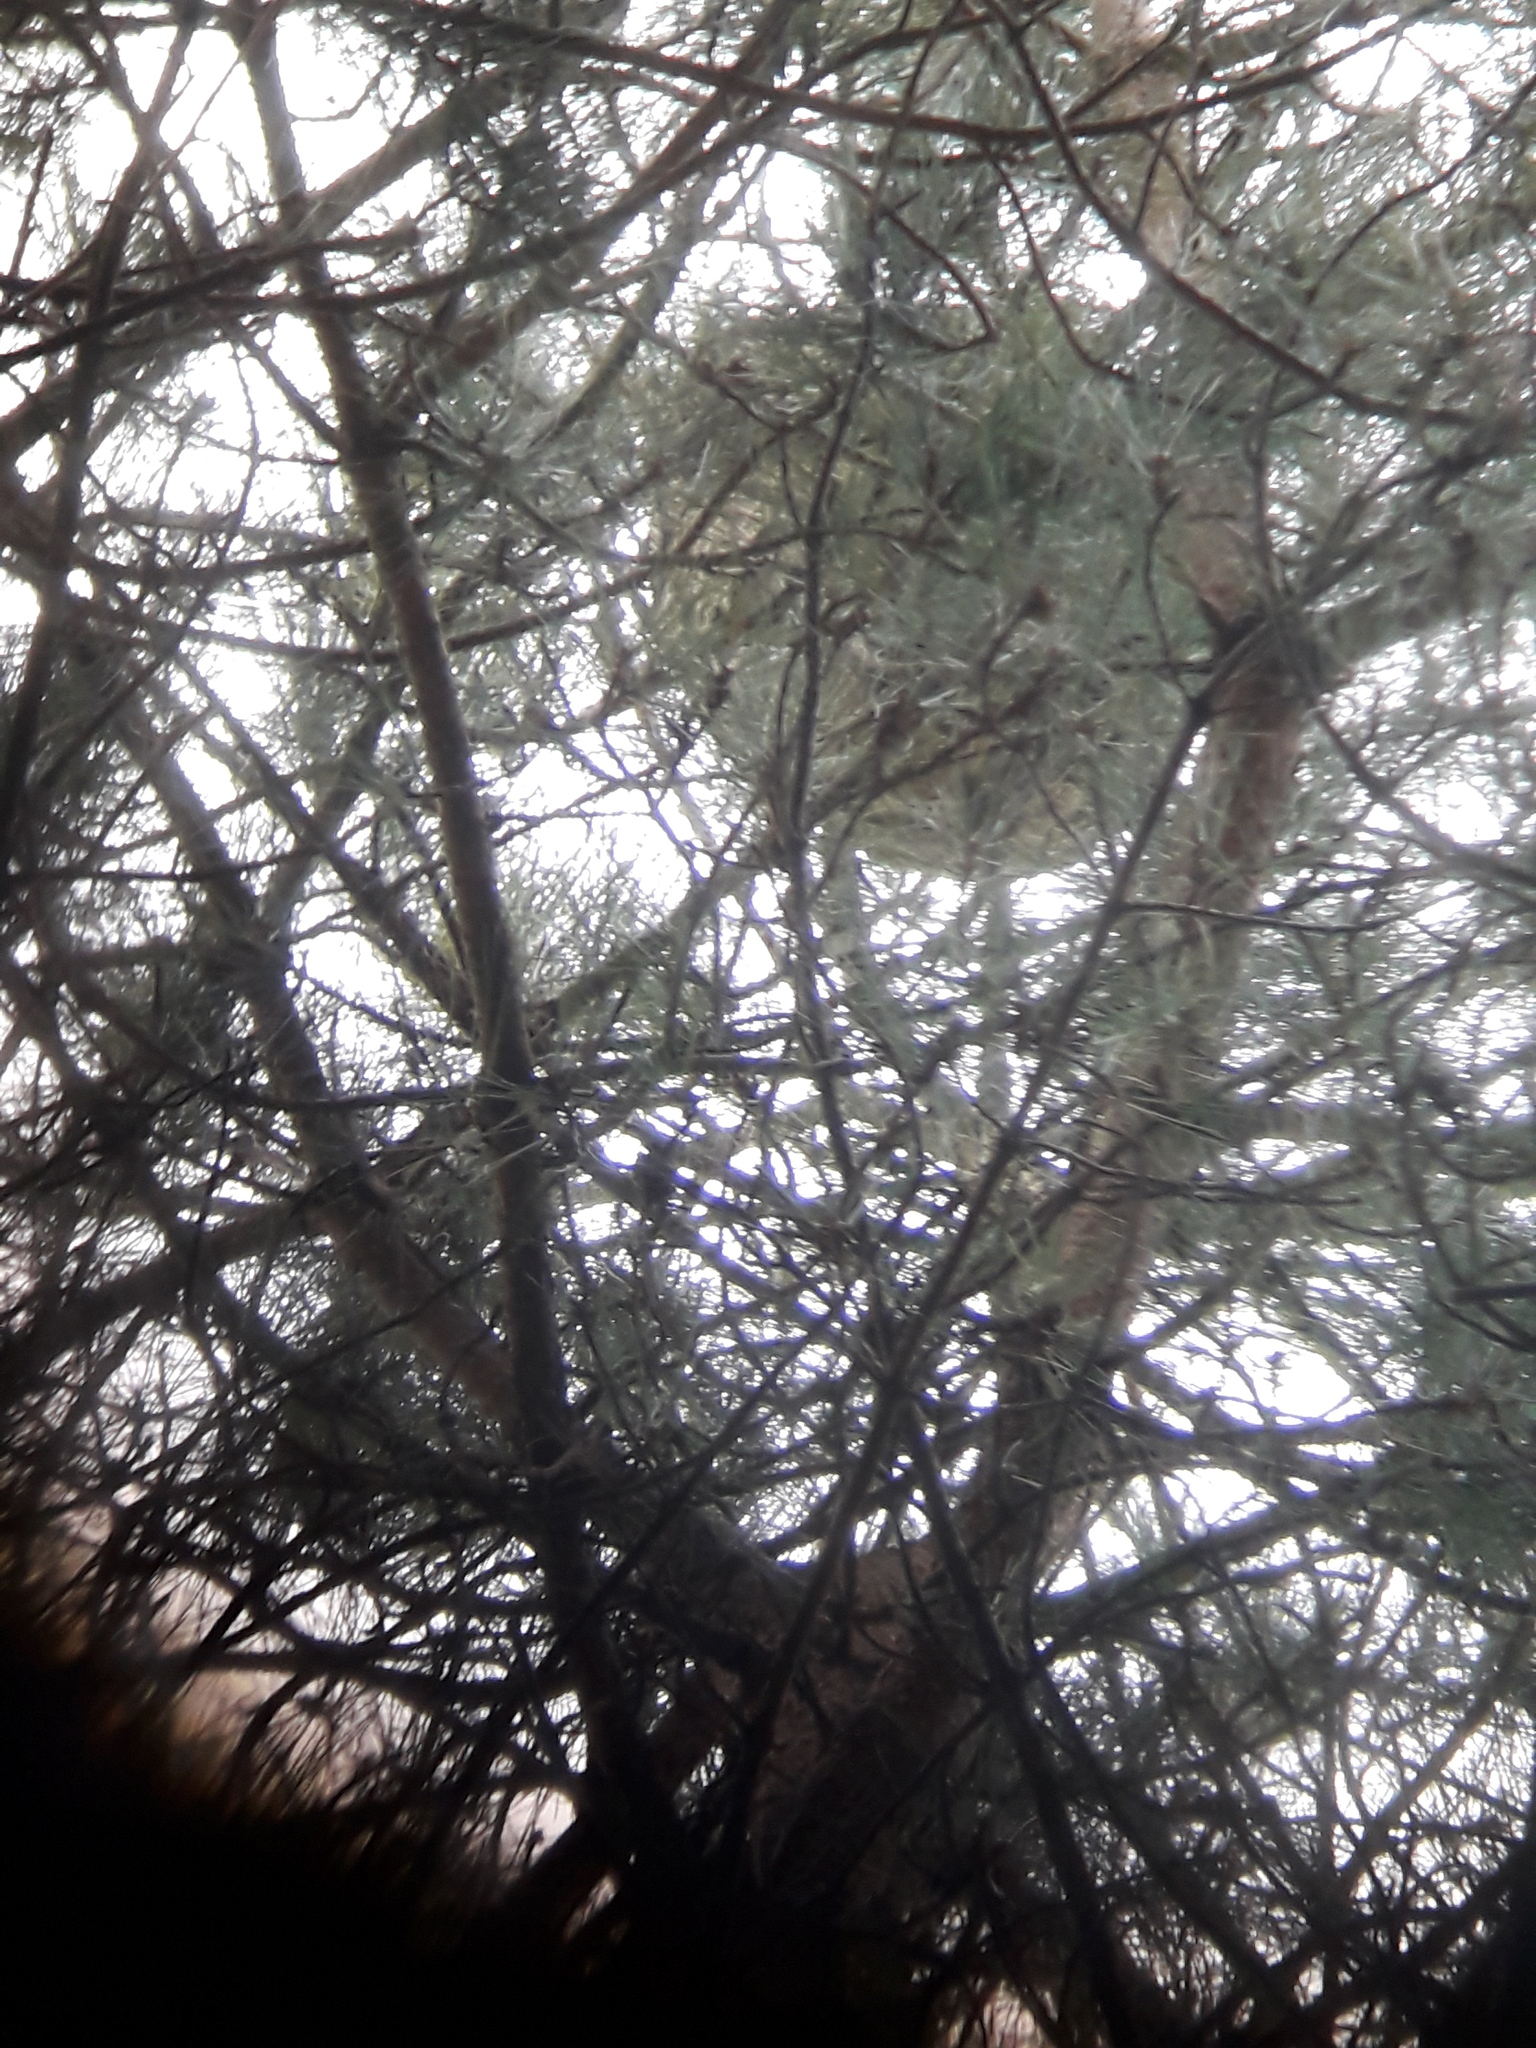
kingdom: Animalia
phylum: Arthropoda
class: Insecta
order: Hymenoptera
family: Vespidae
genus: Vespa
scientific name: Vespa velutina
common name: Asian hornet
